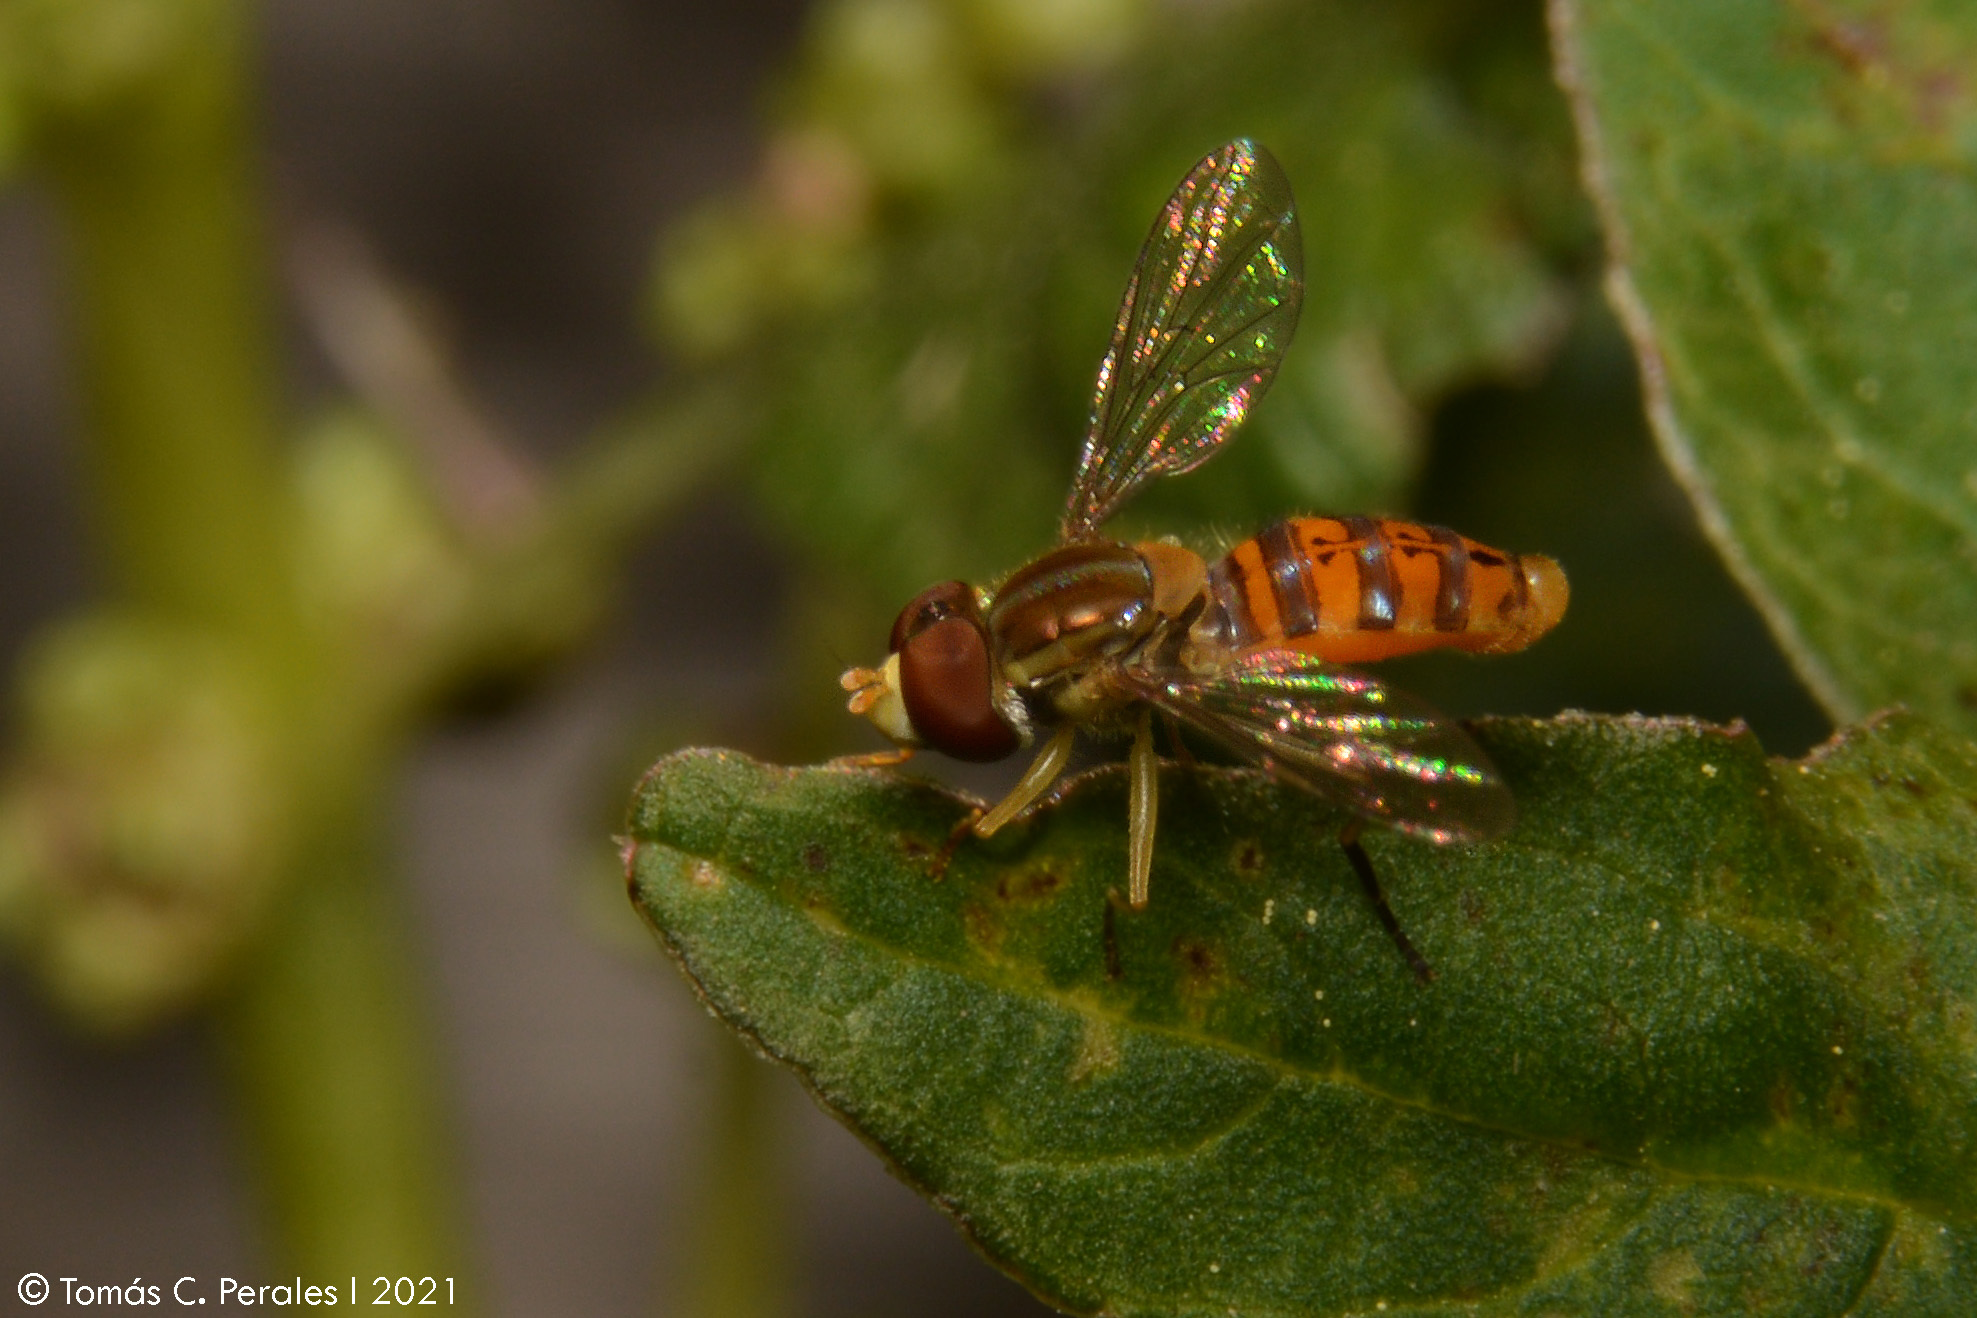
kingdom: Animalia
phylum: Arthropoda
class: Insecta
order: Diptera
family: Syrphidae
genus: Toxomerus
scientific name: Toxomerus
